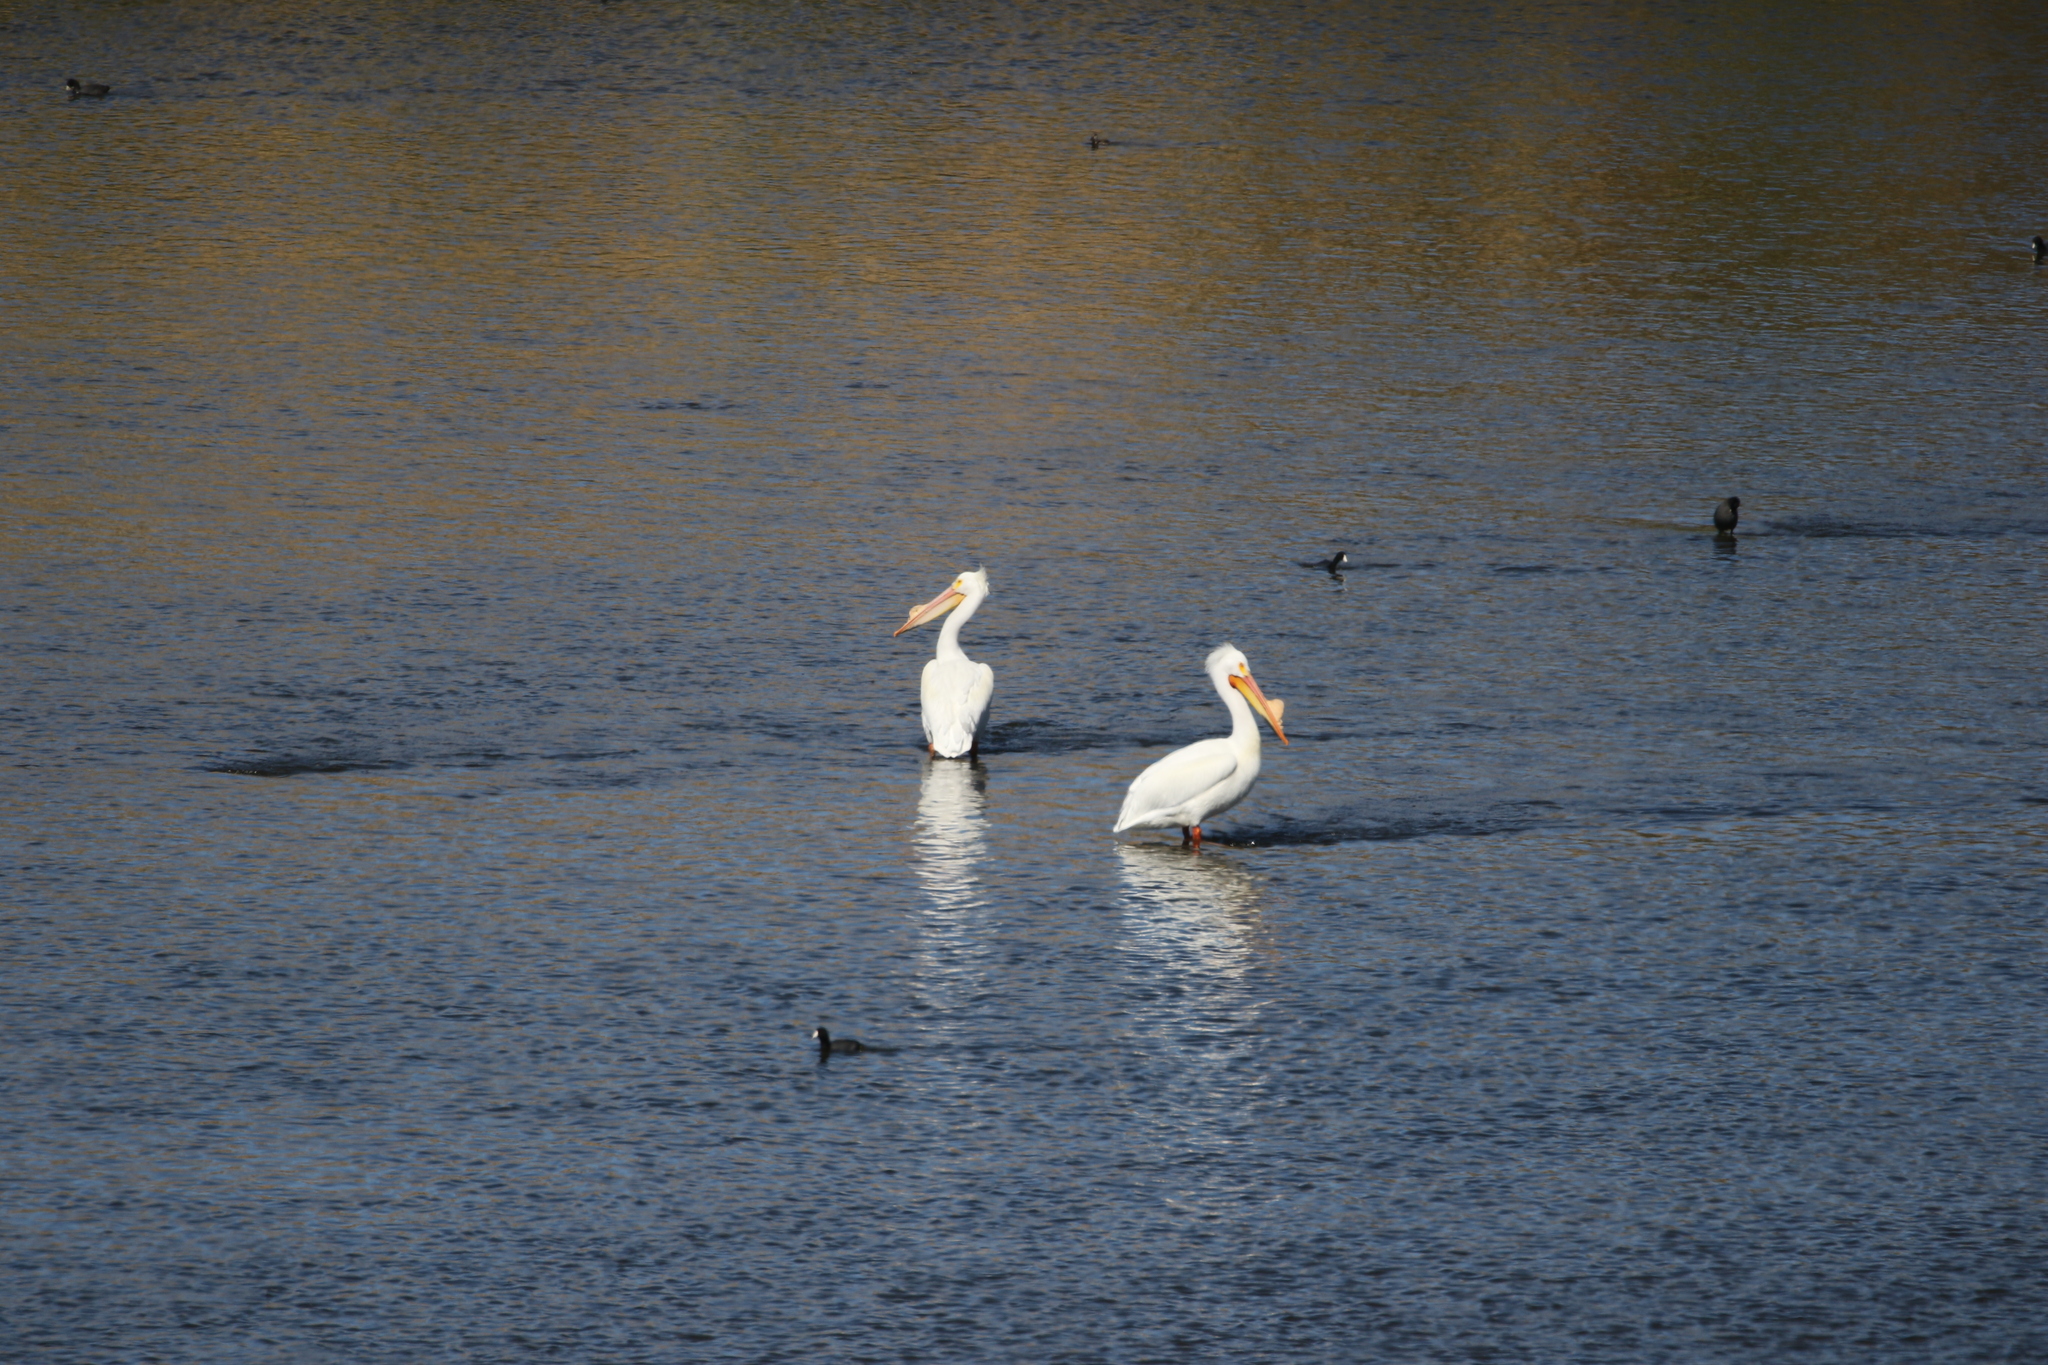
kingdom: Animalia
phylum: Chordata
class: Aves
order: Pelecaniformes
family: Pelecanidae
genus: Pelecanus
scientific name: Pelecanus erythrorhynchos
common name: American white pelican
